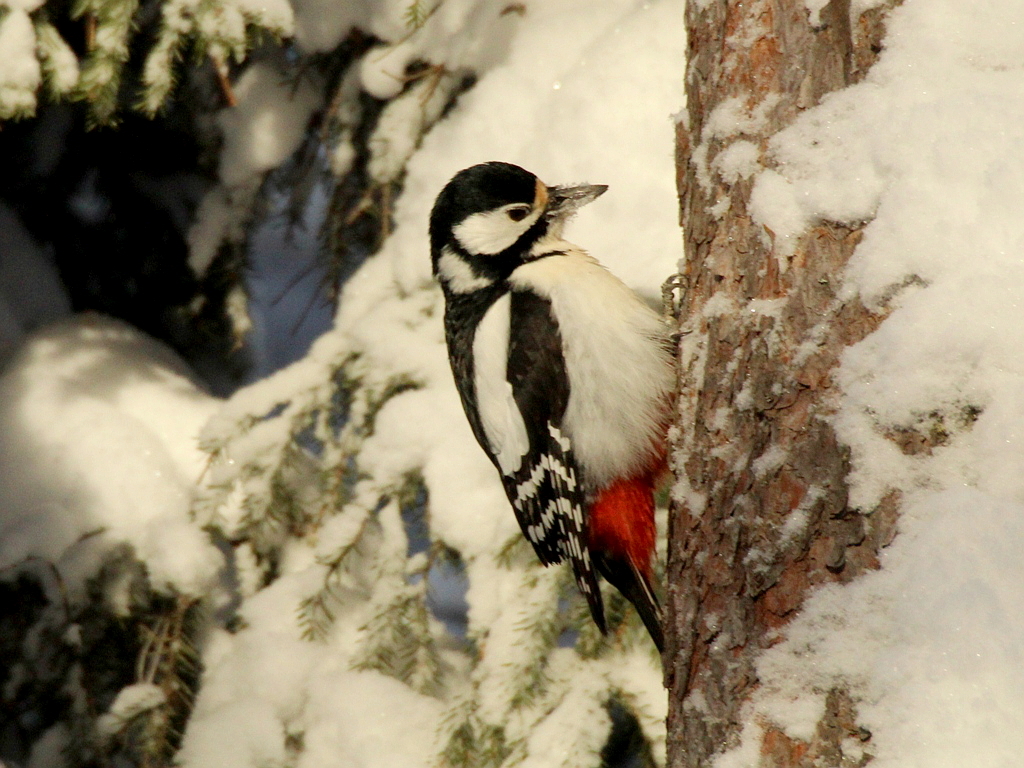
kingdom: Animalia
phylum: Chordata
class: Aves
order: Piciformes
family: Picidae
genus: Dendrocopos
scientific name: Dendrocopos major
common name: Great spotted woodpecker
